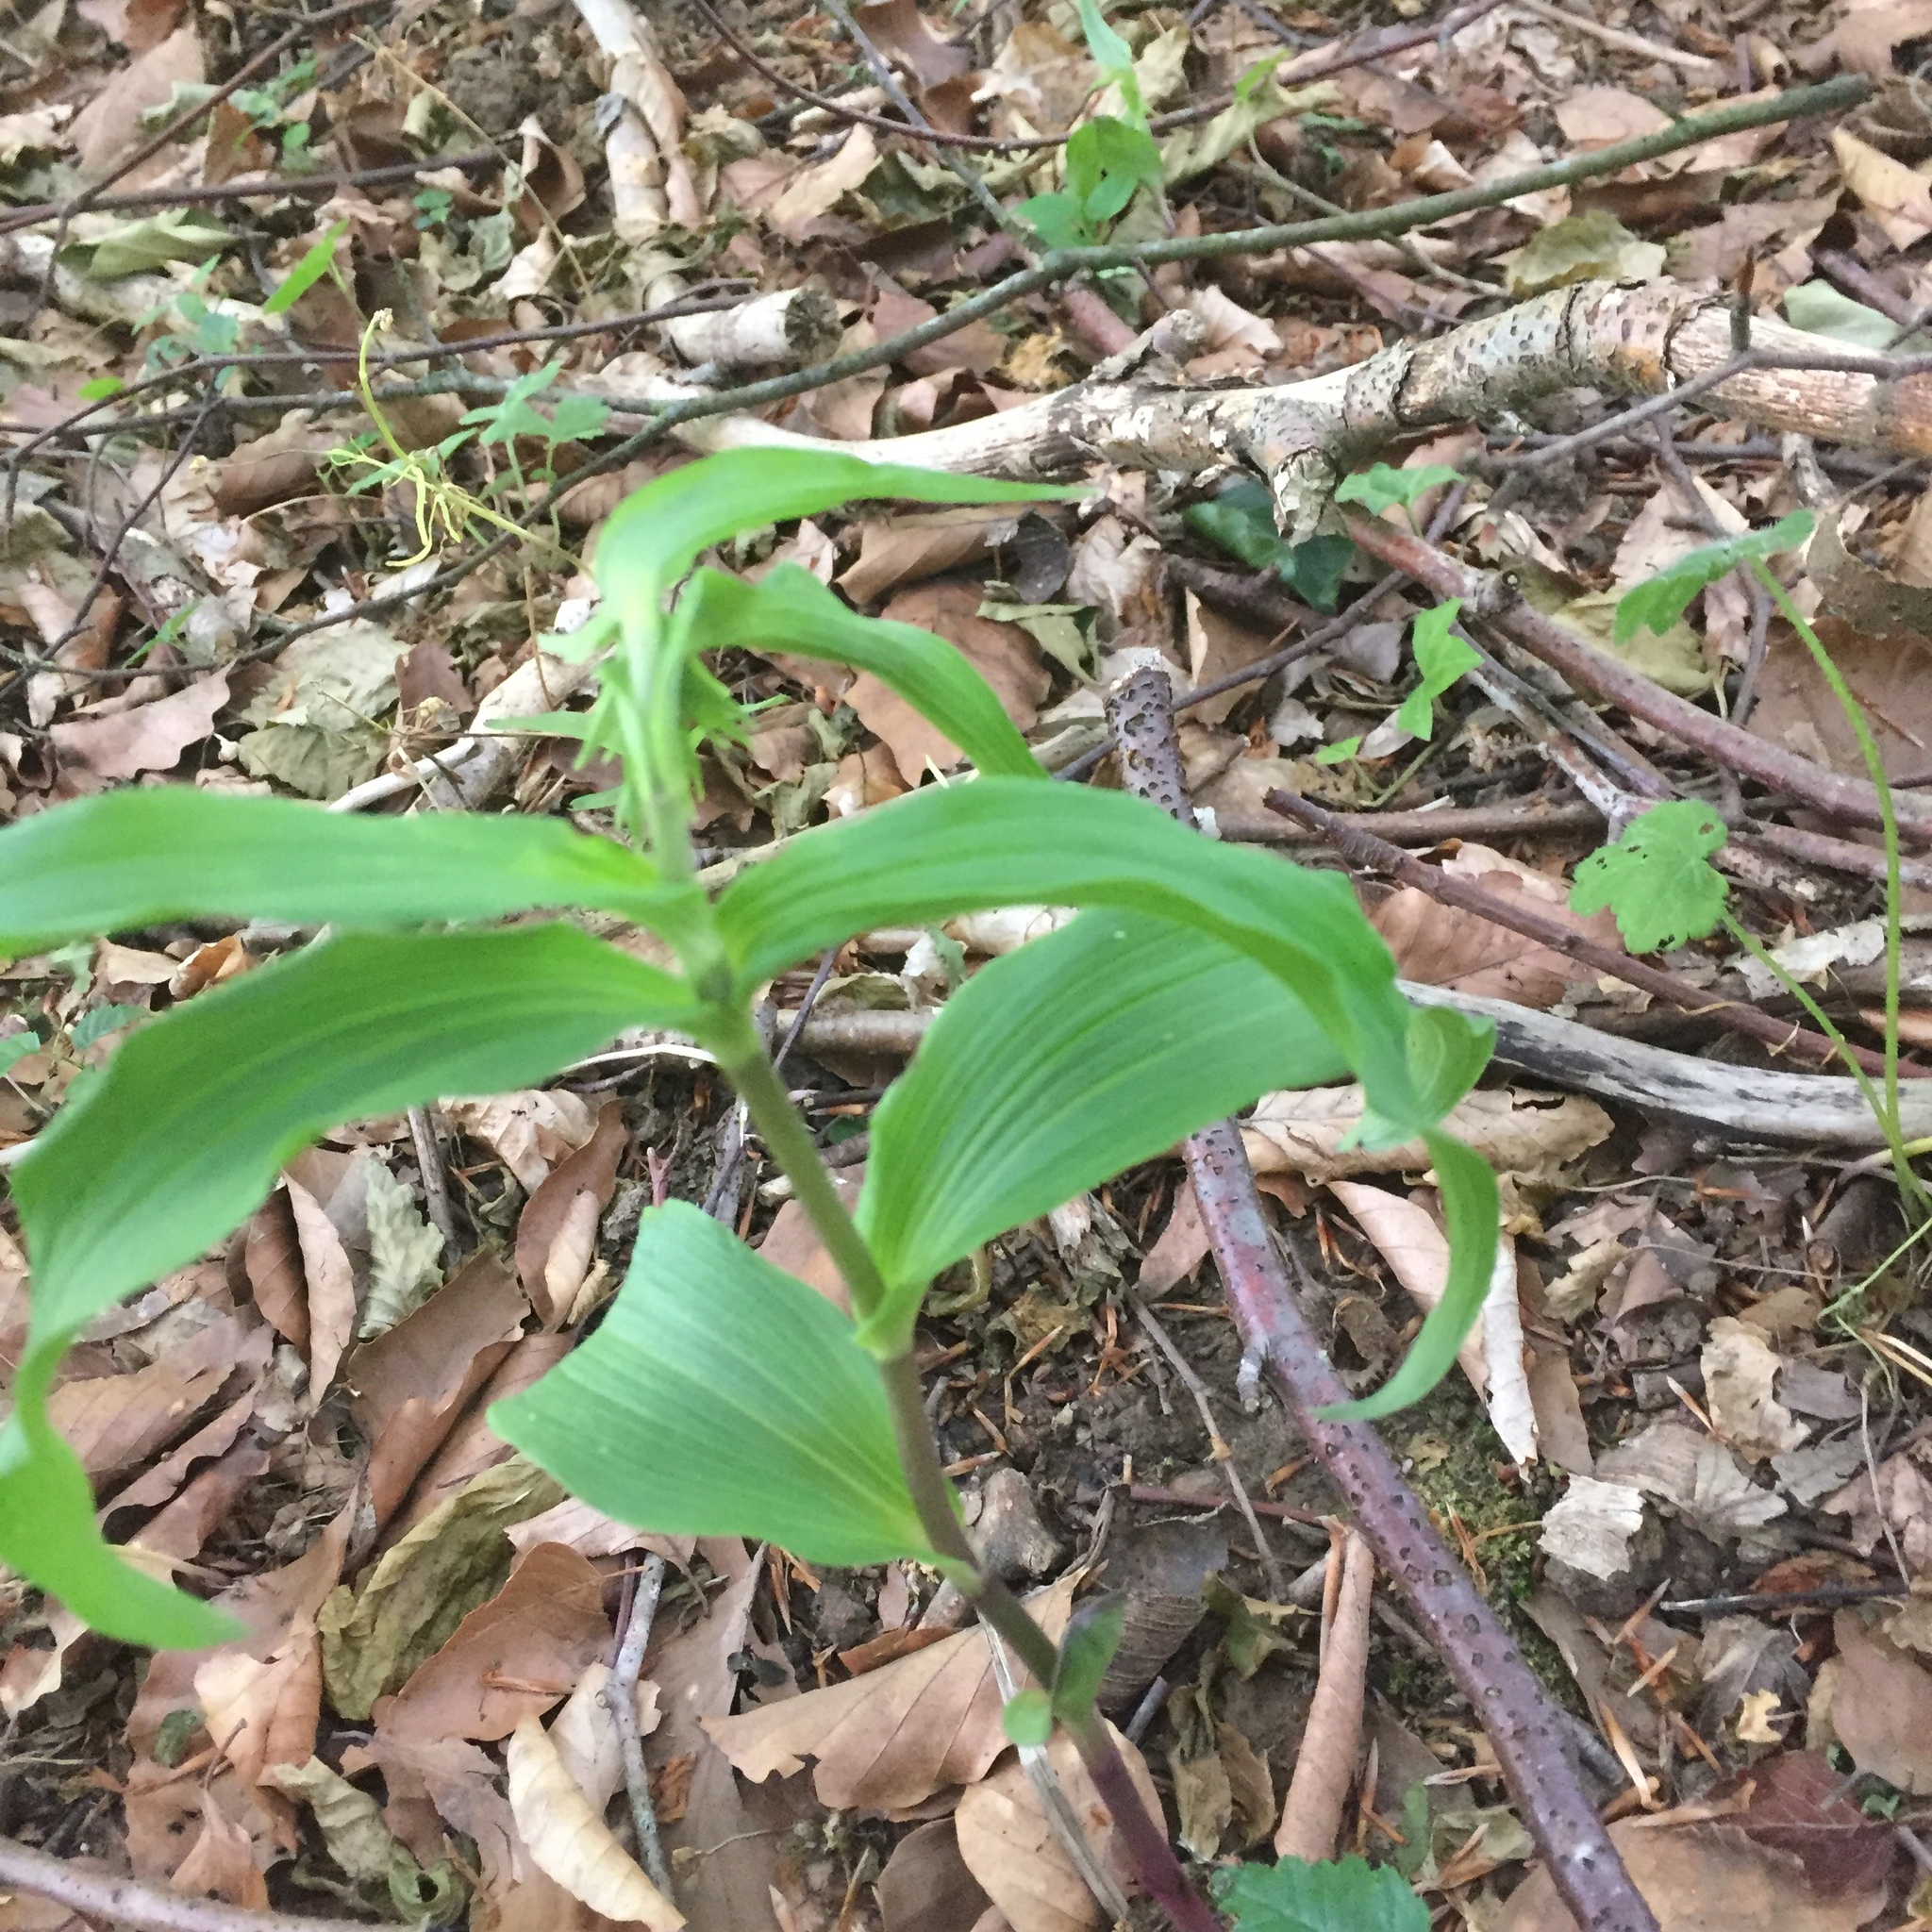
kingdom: Plantae
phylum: Tracheophyta
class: Liliopsida
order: Asparagales
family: Orchidaceae
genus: Epipactis
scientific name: Epipactis helleborine
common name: Broad-leaved helleborine
